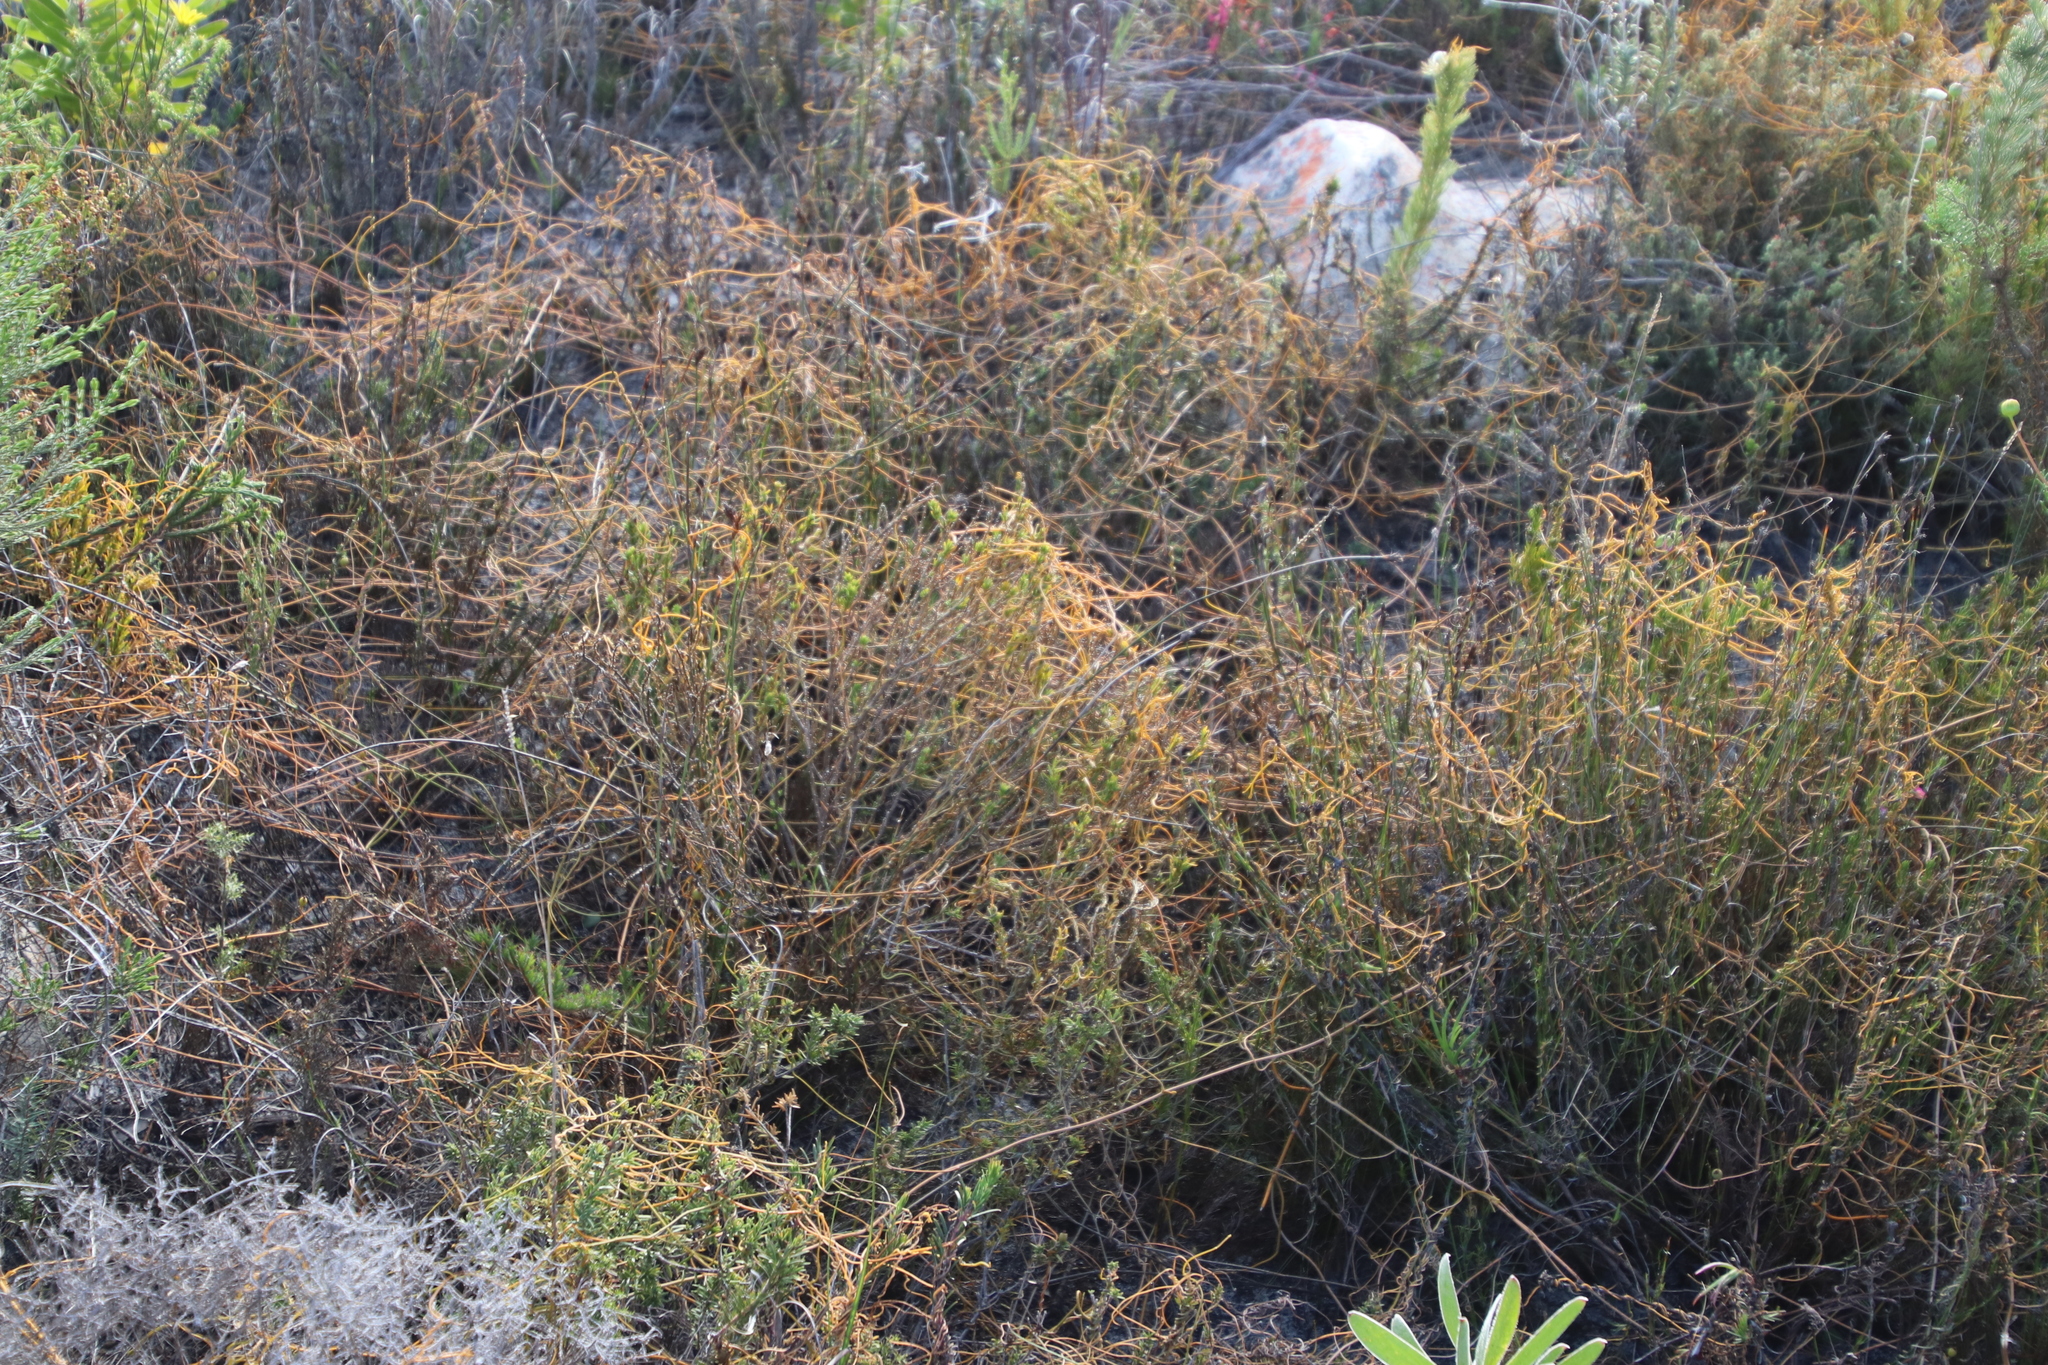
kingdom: Plantae
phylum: Tracheophyta
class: Magnoliopsida
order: Laurales
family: Lauraceae
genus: Cassytha
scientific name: Cassytha ciliolata
